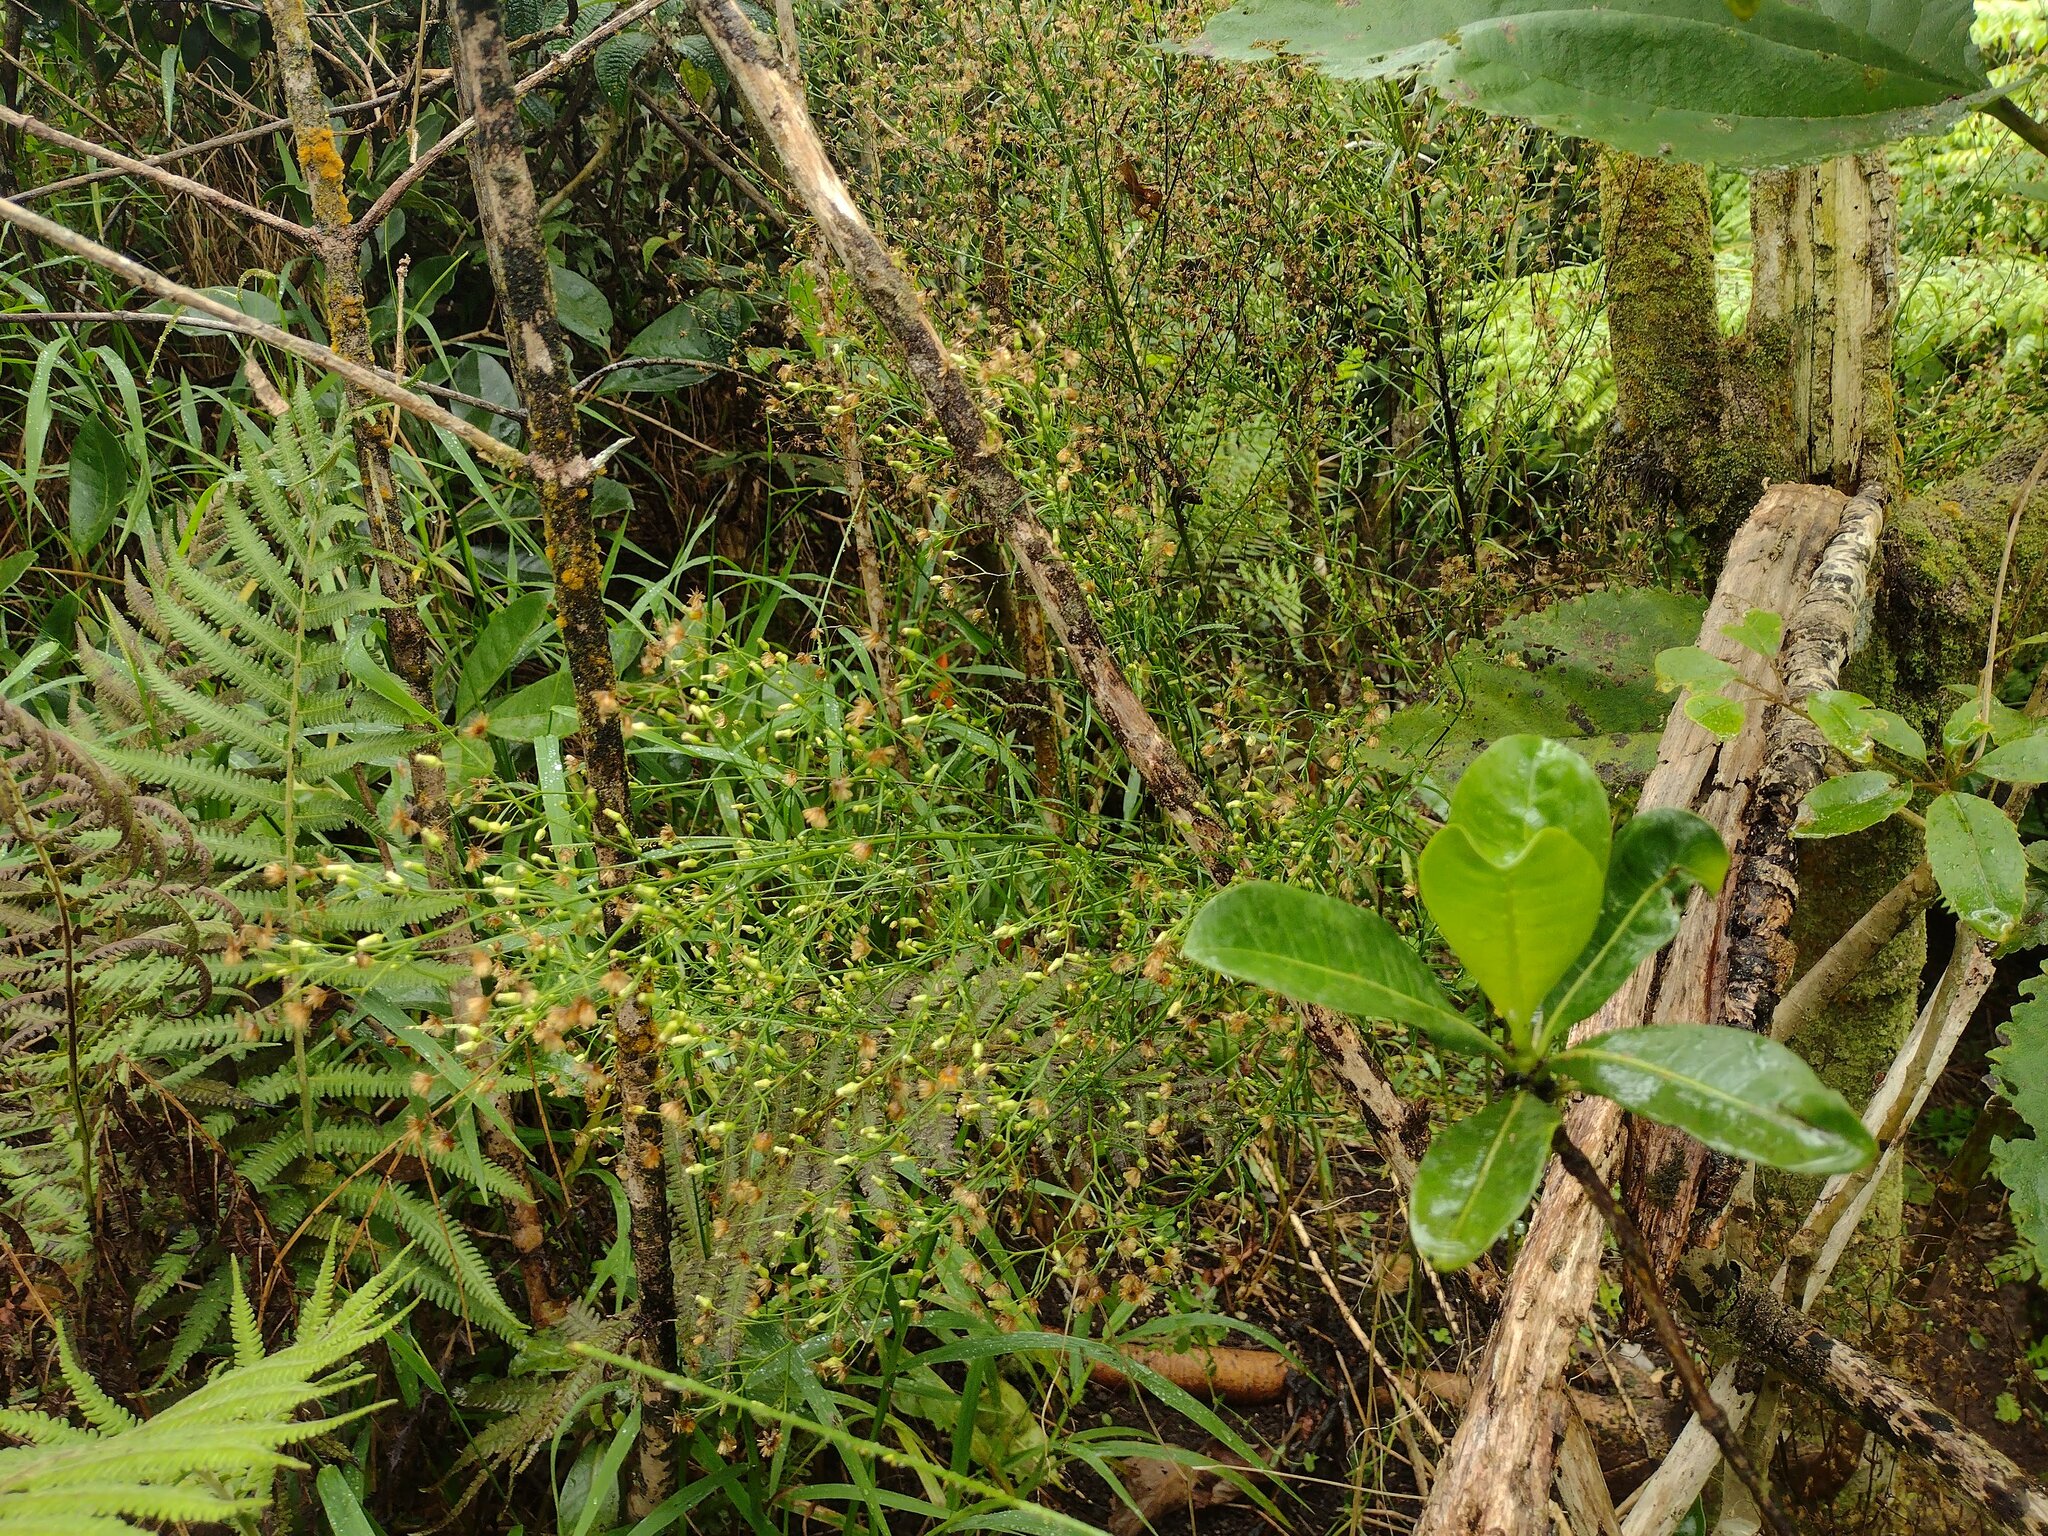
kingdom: Plantae
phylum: Tracheophyta
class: Magnoliopsida
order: Asterales
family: Asteraceae
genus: Erigeron
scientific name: Erigeron canadensis
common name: Canadian fleabane
